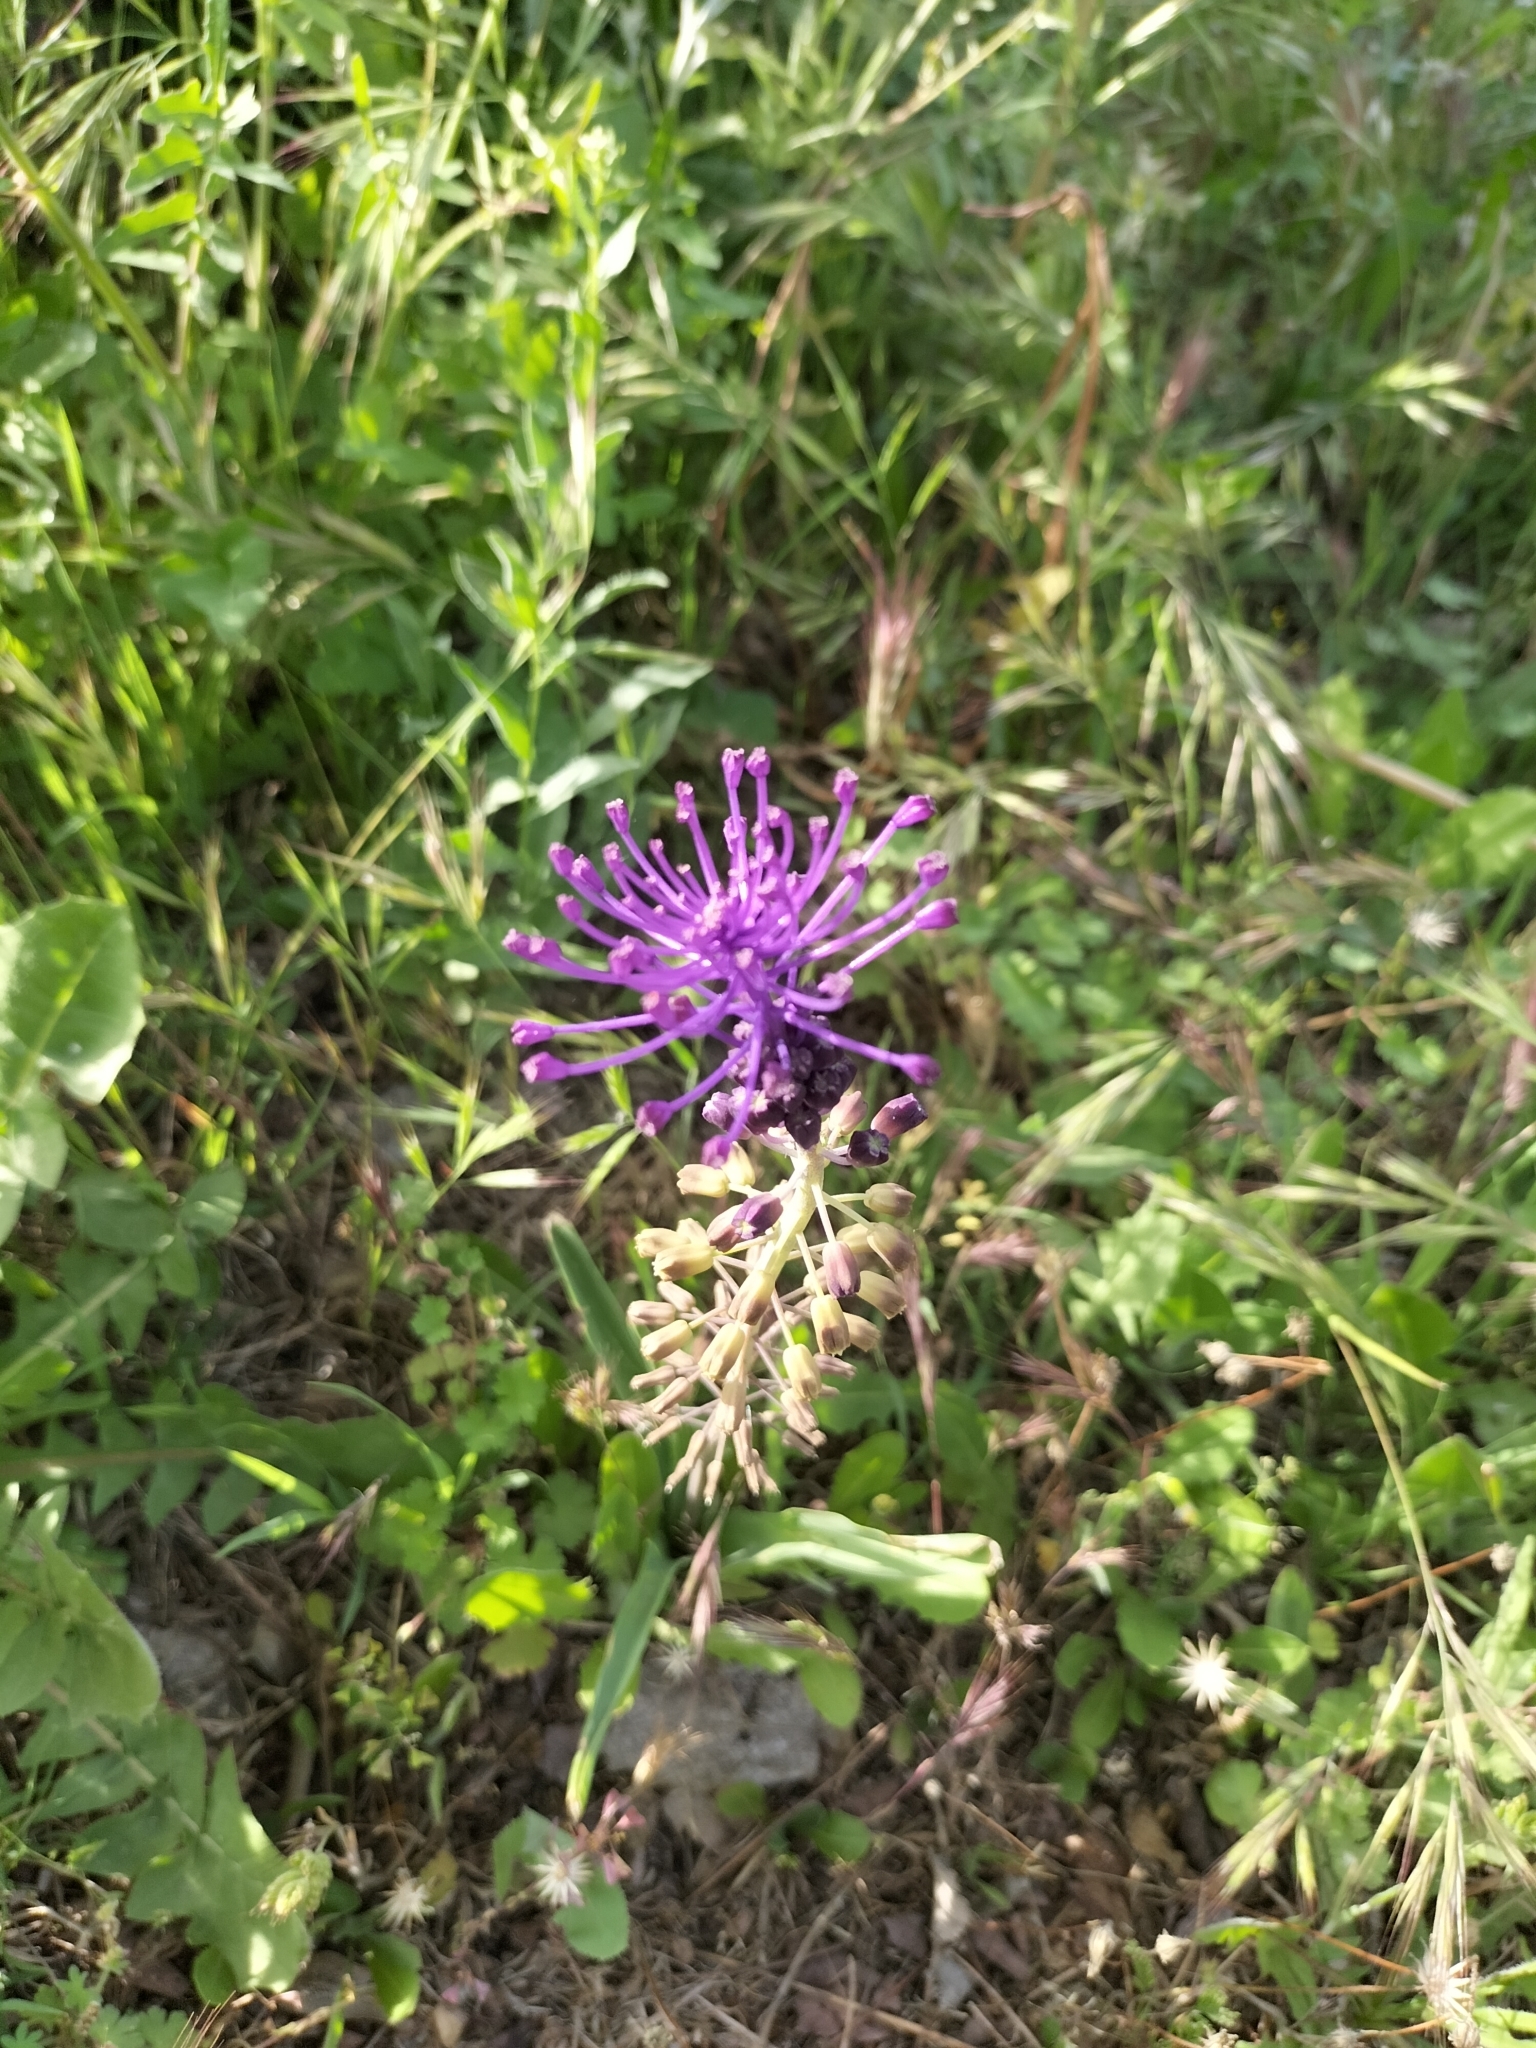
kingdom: Plantae
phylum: Tracheophyta
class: Liliopsida
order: Asparagales
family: Asparagaceae
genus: Muscari
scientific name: Muscari comosum
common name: Tassel hyacinth
